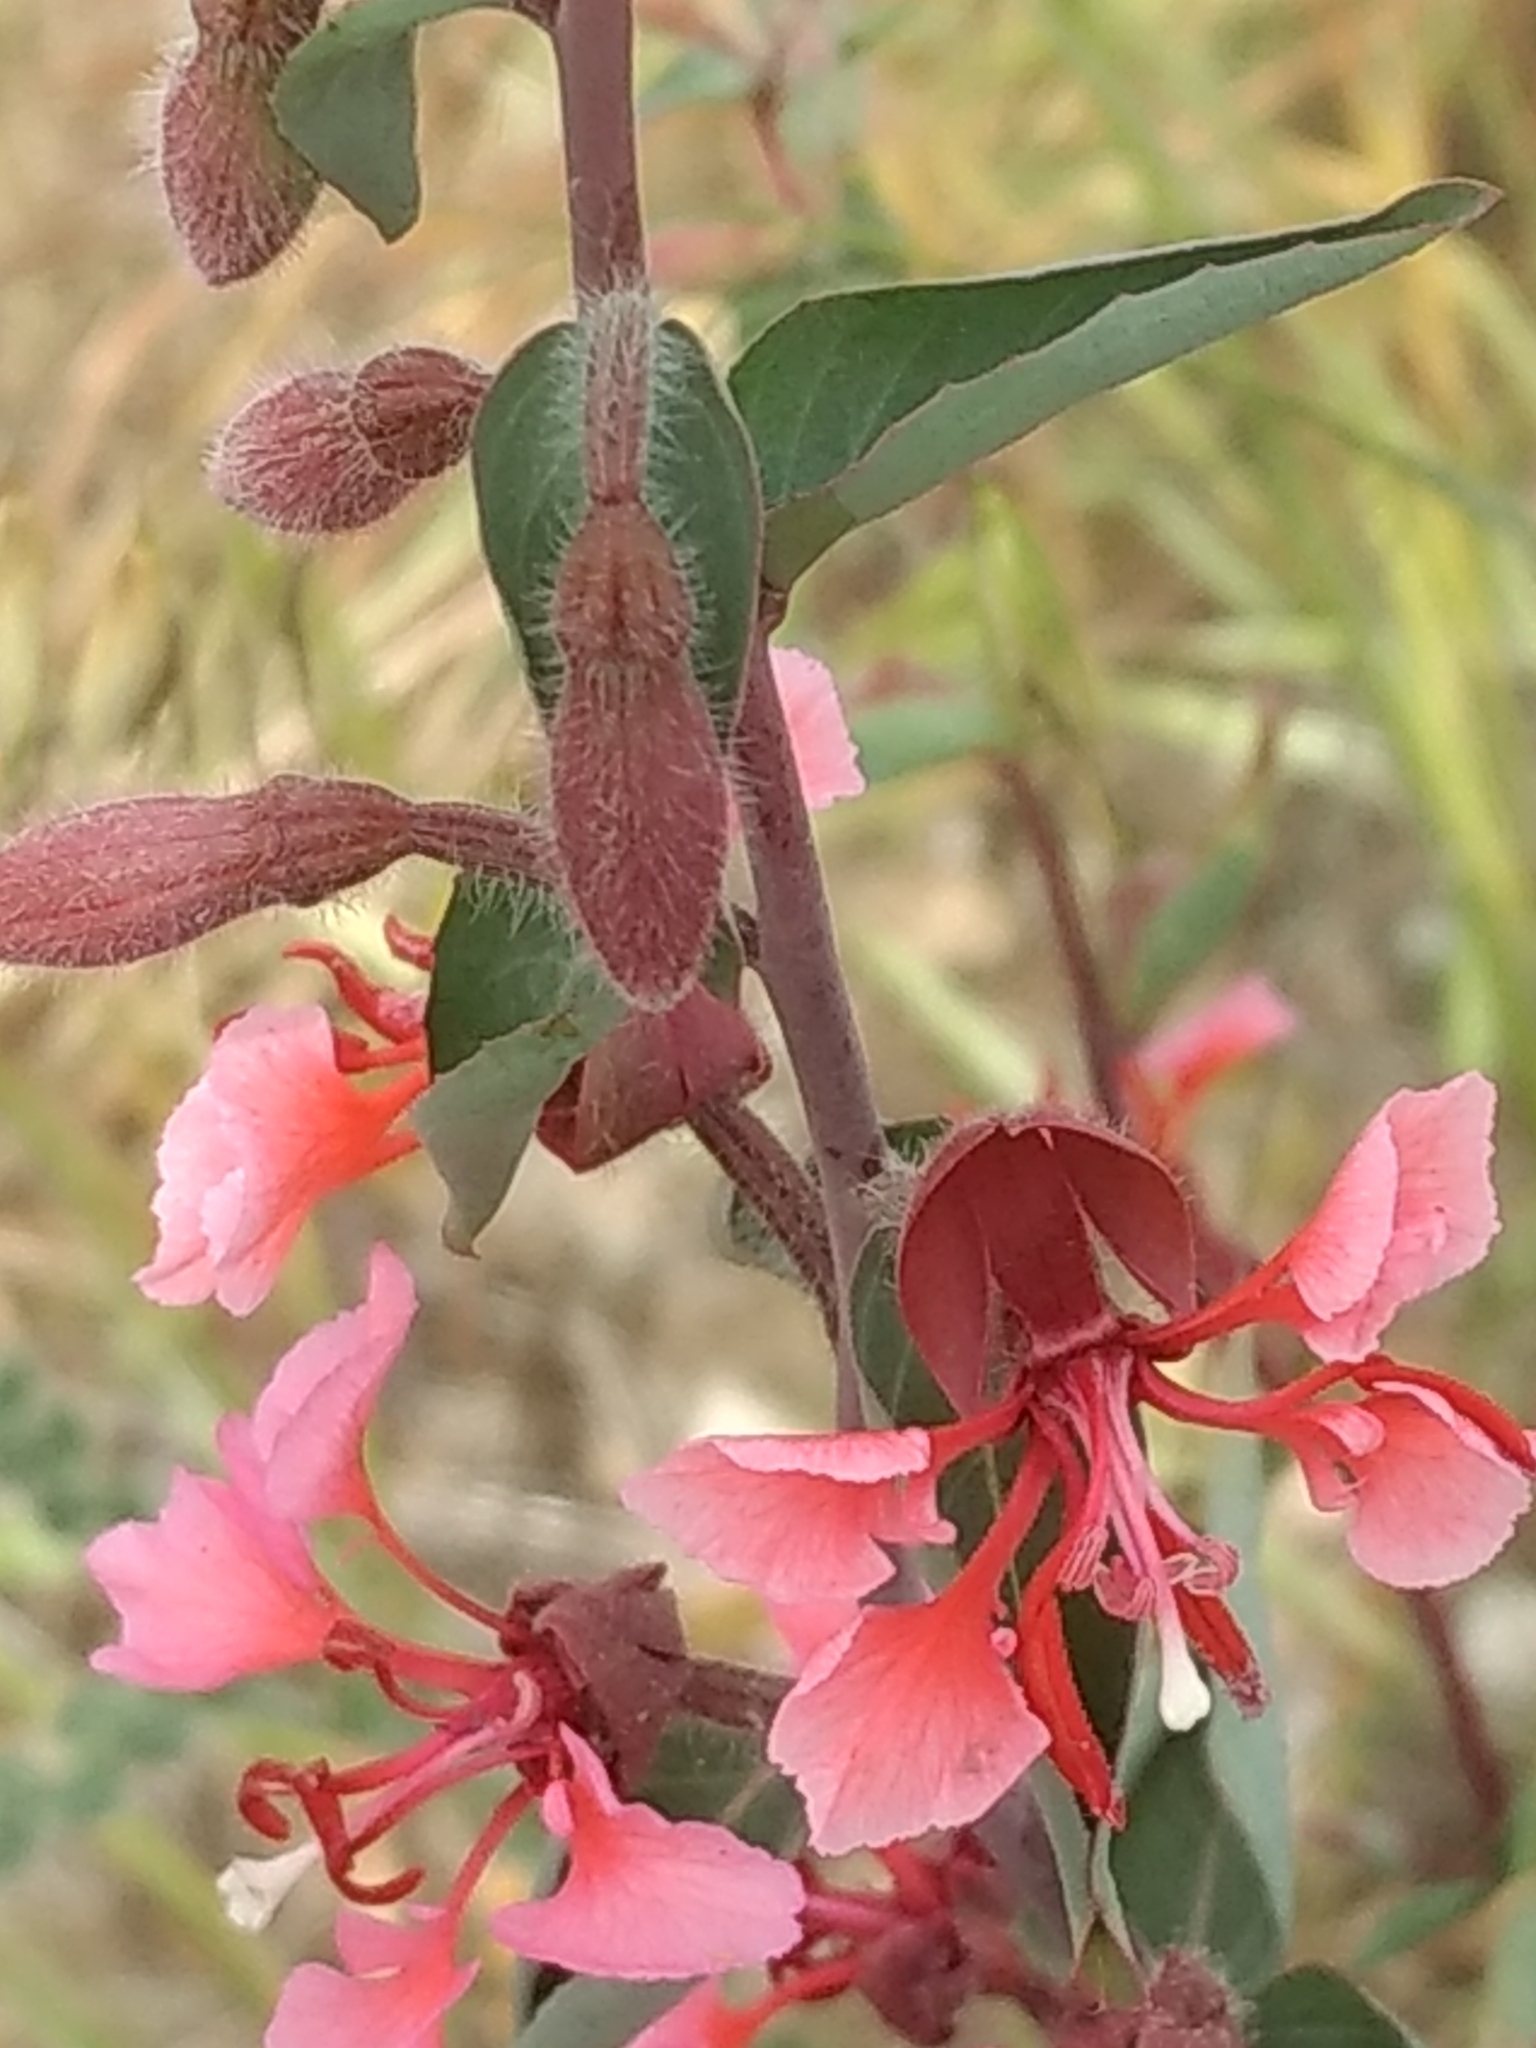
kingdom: Plantae
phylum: Tracheophyta
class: Magnoliopsida
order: Myrtales
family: Onagraceae
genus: Clarkia
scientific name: Clarkia unguiculata
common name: Clarkia
